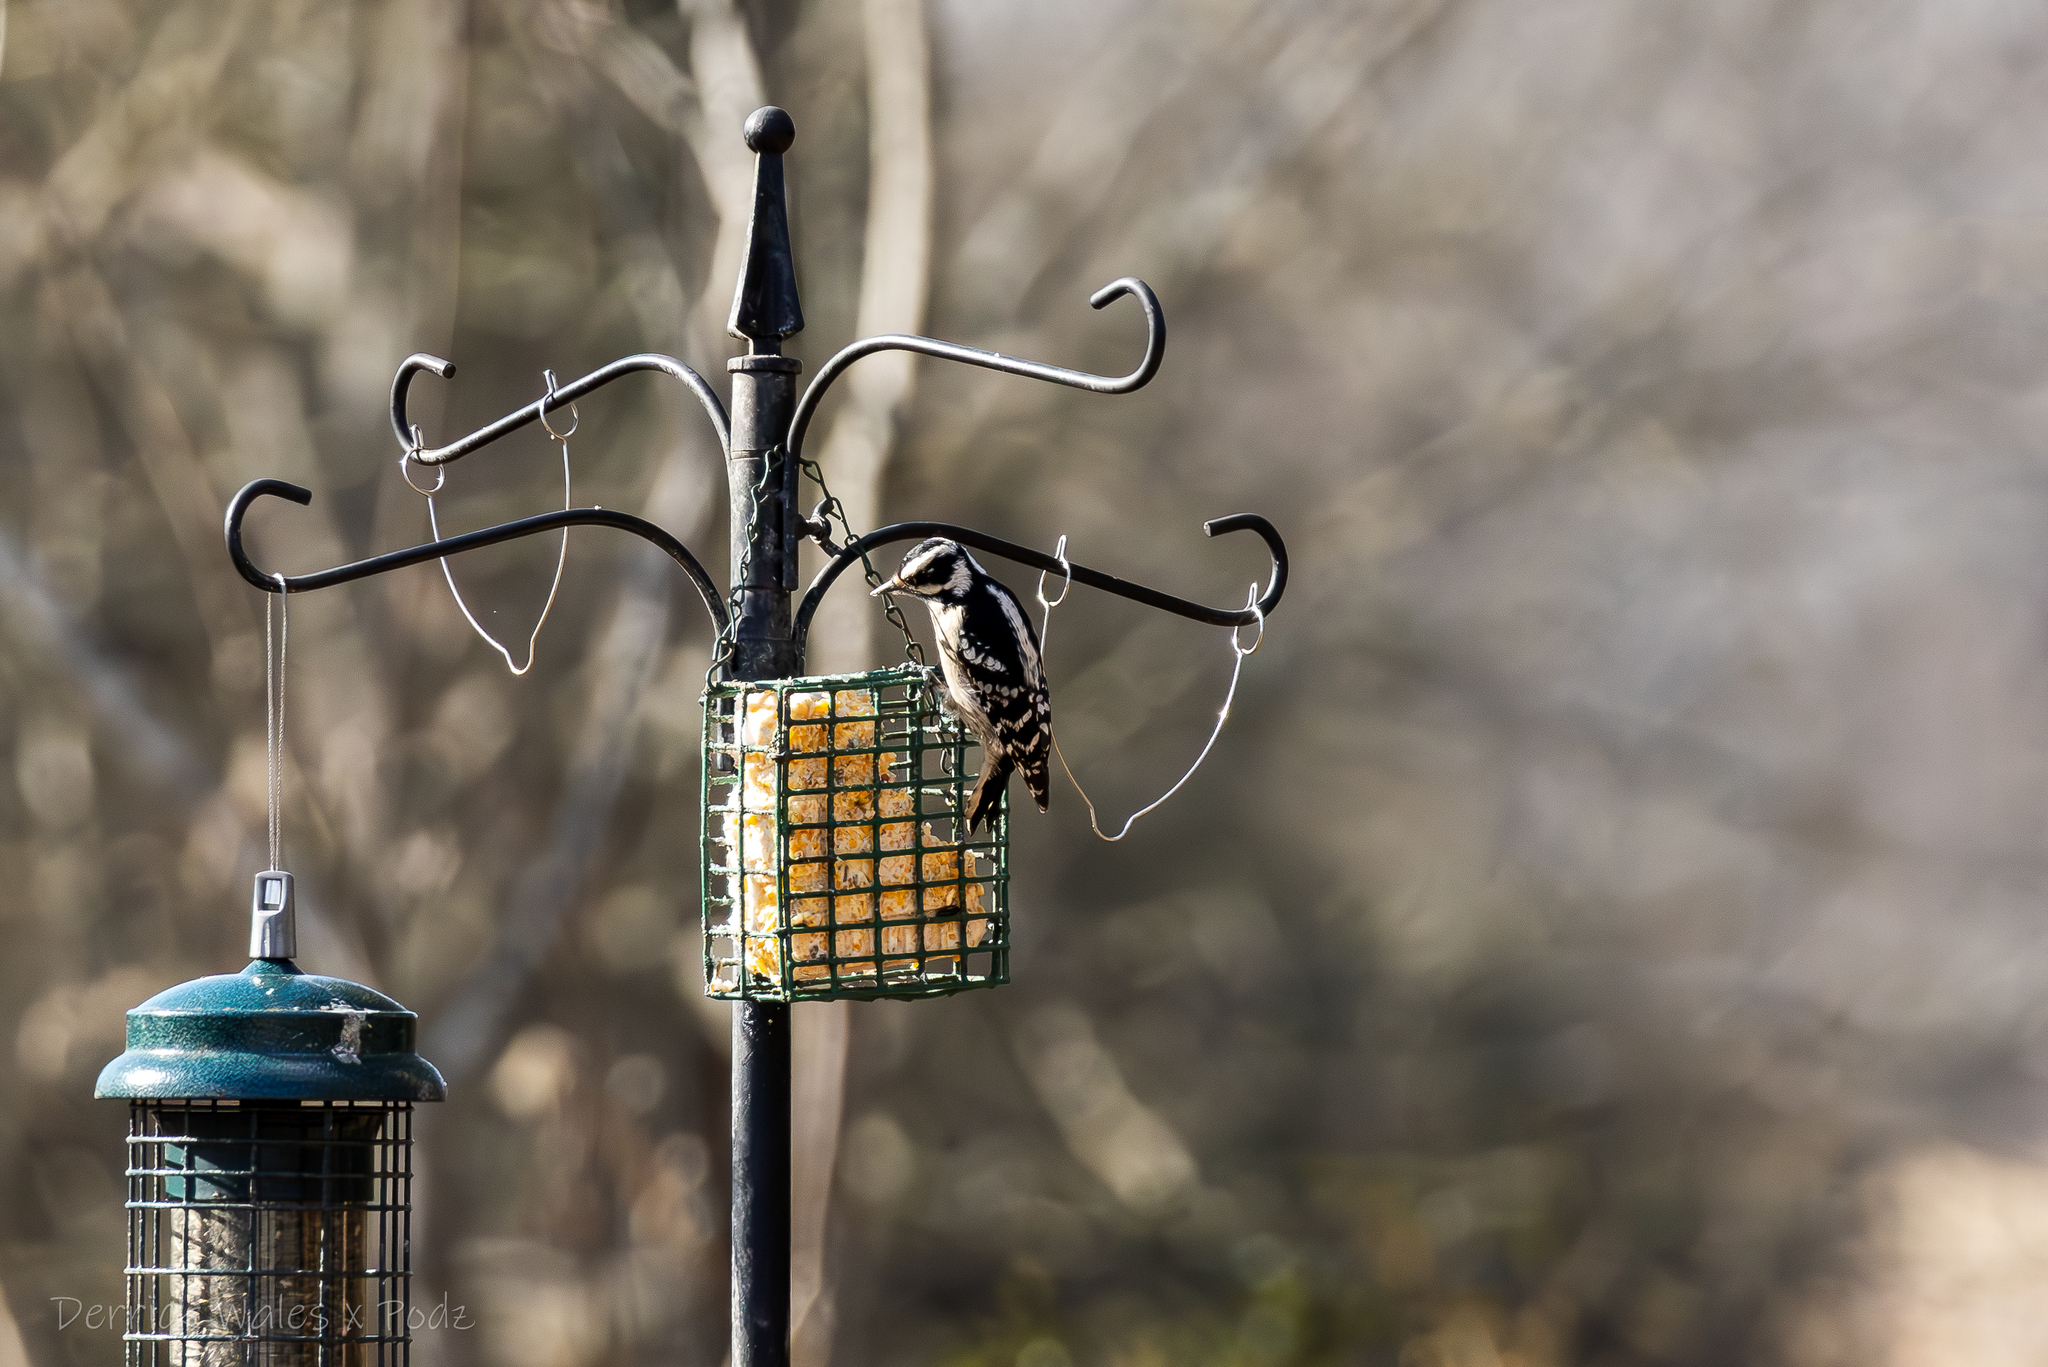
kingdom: Animalia
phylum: Chordata
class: Aves
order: Piciformes
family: Picidae
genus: Dryobates
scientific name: Dryobates pubescens
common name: Downy woodpecker
